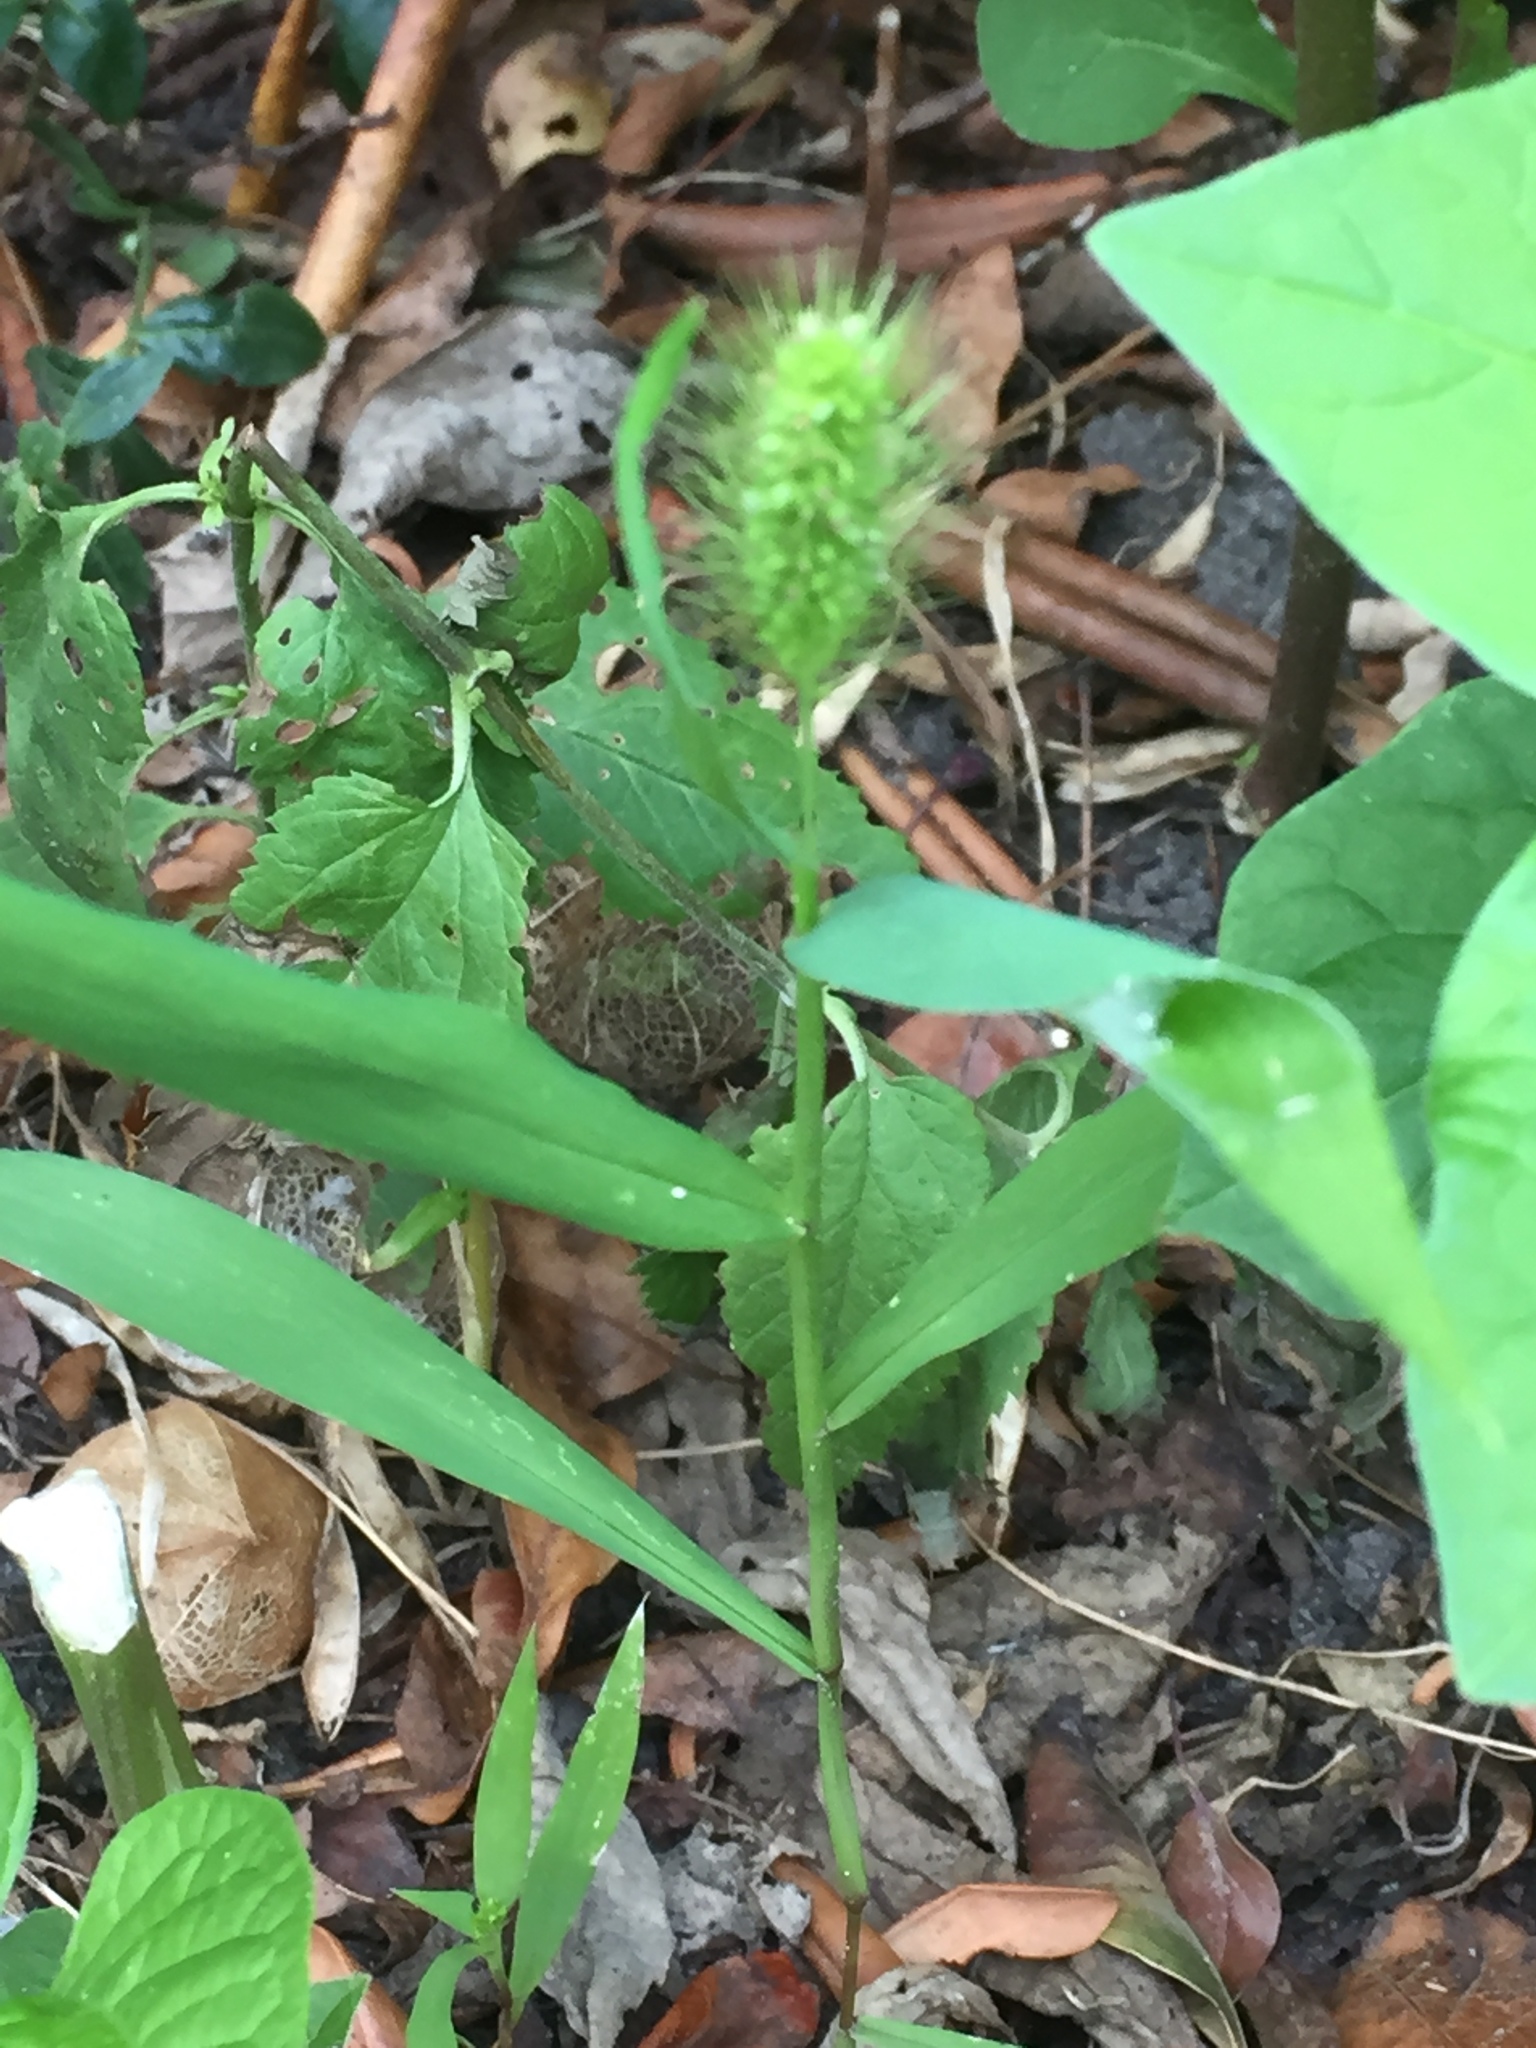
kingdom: Plantae
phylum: Tracheophyta
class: Liliopsida
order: Poales
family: Poaceae
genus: Setaria
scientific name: Setaria viridis
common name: Green bristlegrass
